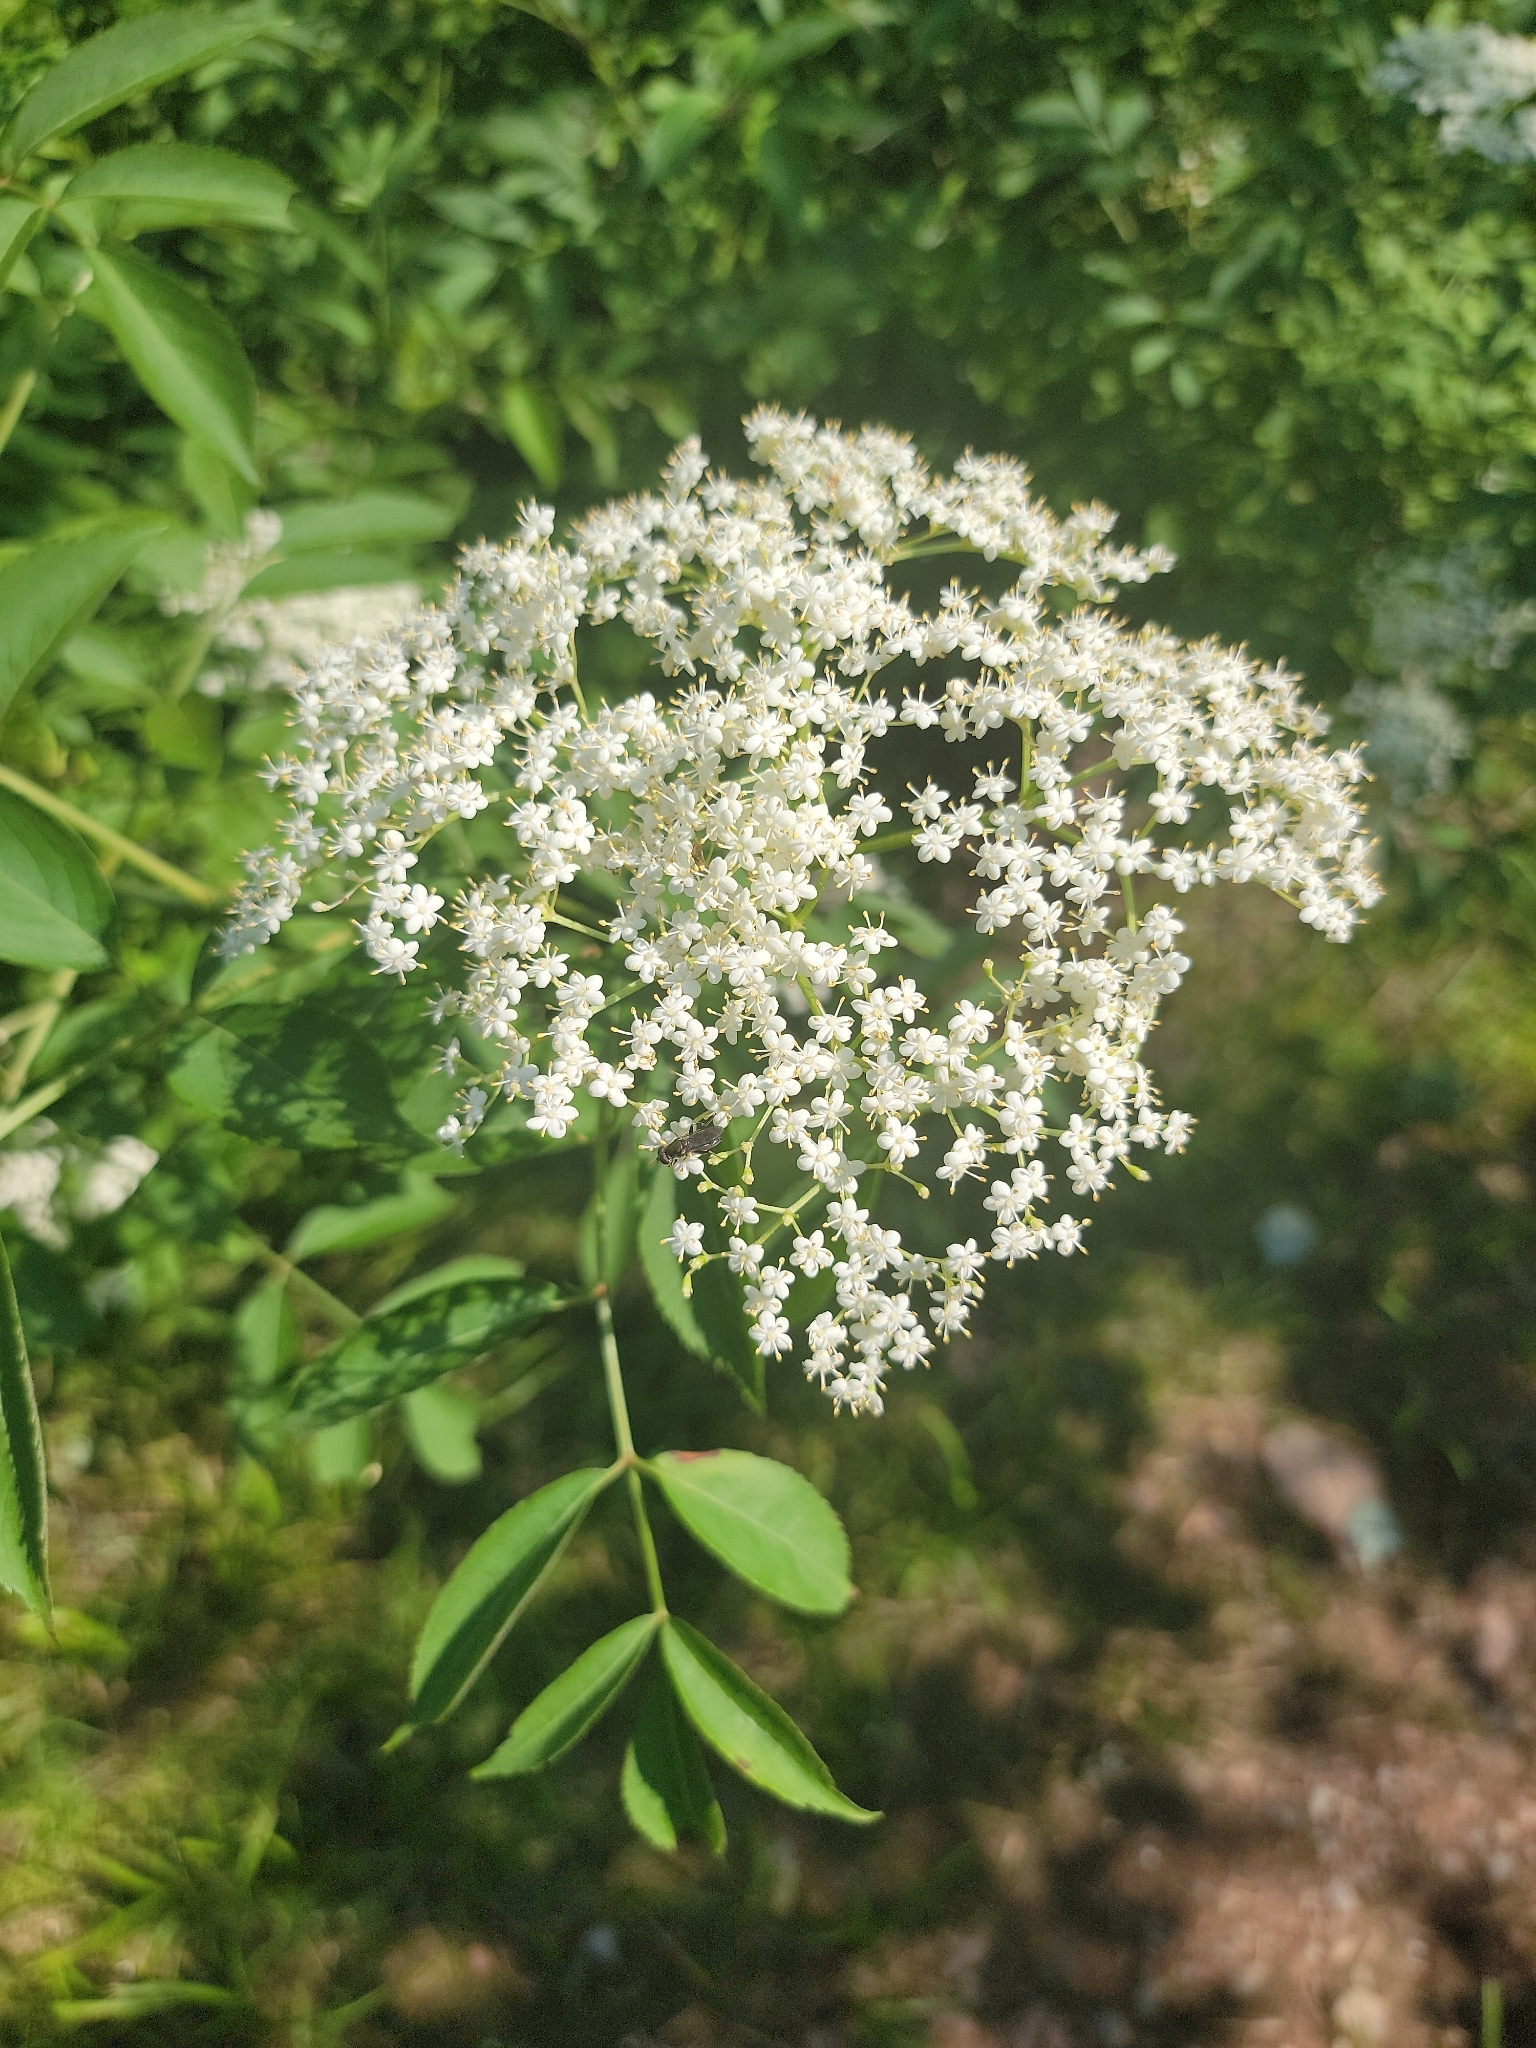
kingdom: Plantae
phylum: Tracheophyta
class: Magnoliopsida
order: Dipsacales
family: Viburnaceae
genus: Sambucus
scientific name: Sambucus canadensis
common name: American elder
